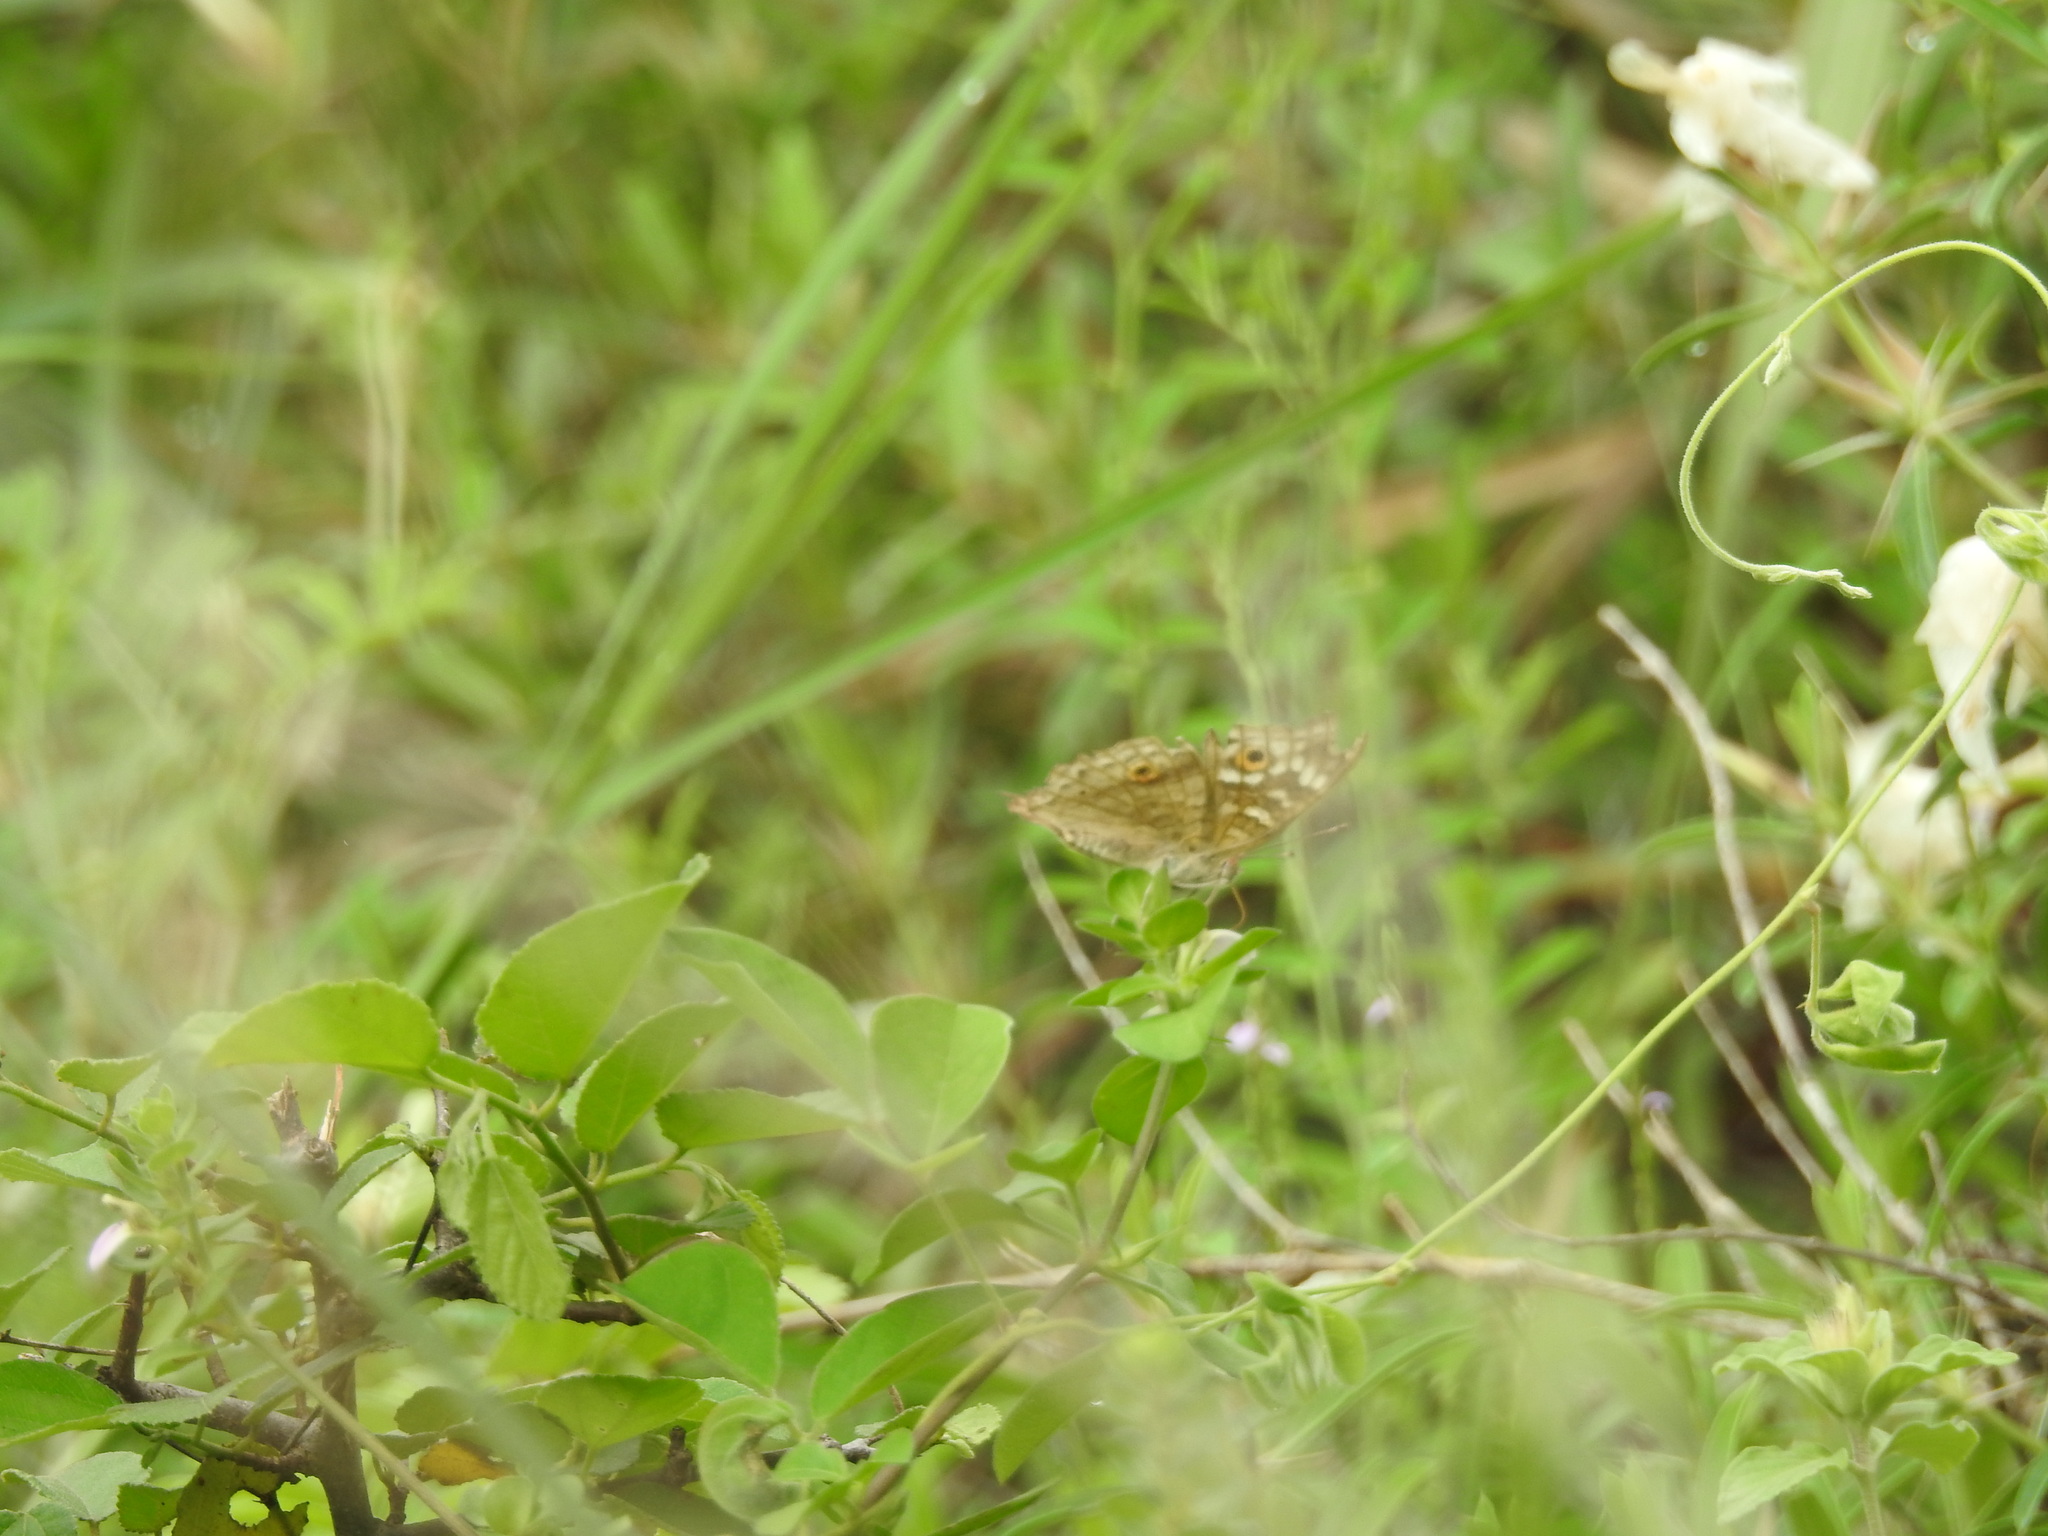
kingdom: Animalia
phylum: Arthropoda
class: Insecta
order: Lepidoptera
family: Nymphalidae
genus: Junonia
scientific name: Junonia lemonias
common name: Lemon pansy
